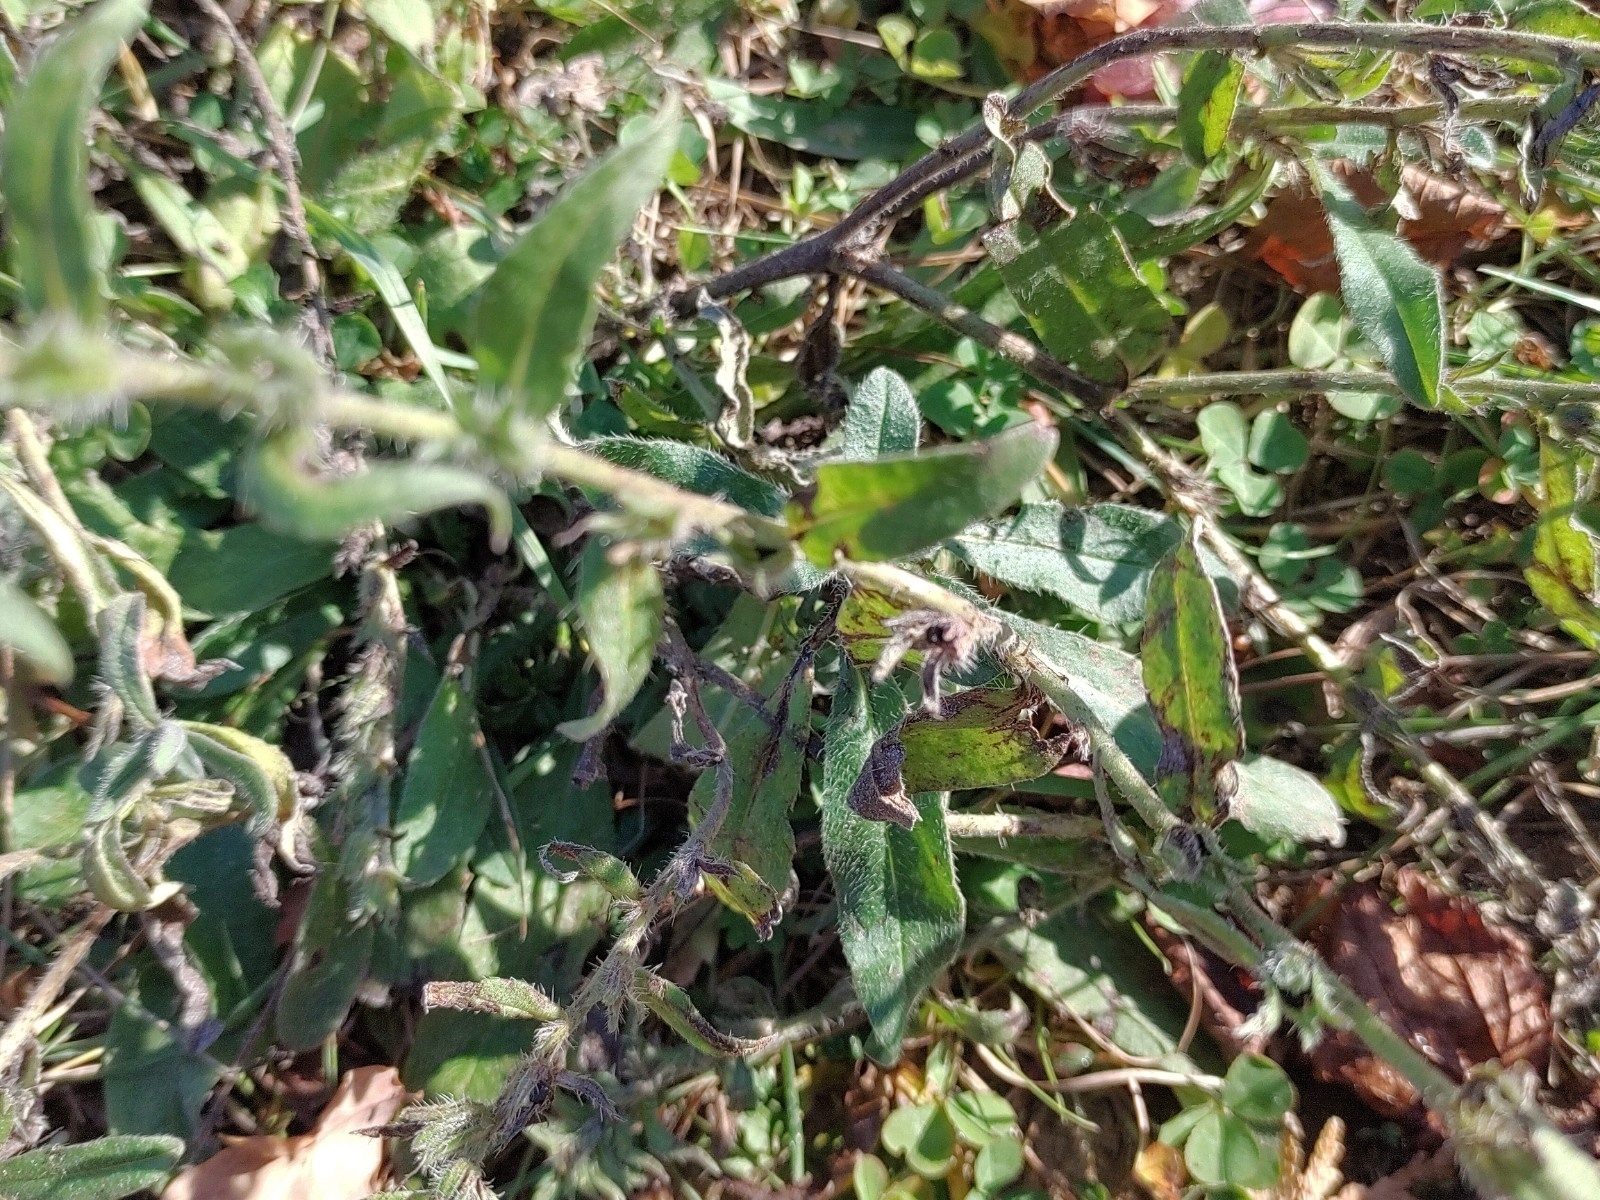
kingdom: Plantae
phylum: Tracheophyta
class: Magnoliopsida
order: Boraginales
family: Boraginaceae
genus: Echium
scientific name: Echium vulgare
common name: Common viper's bugloss
